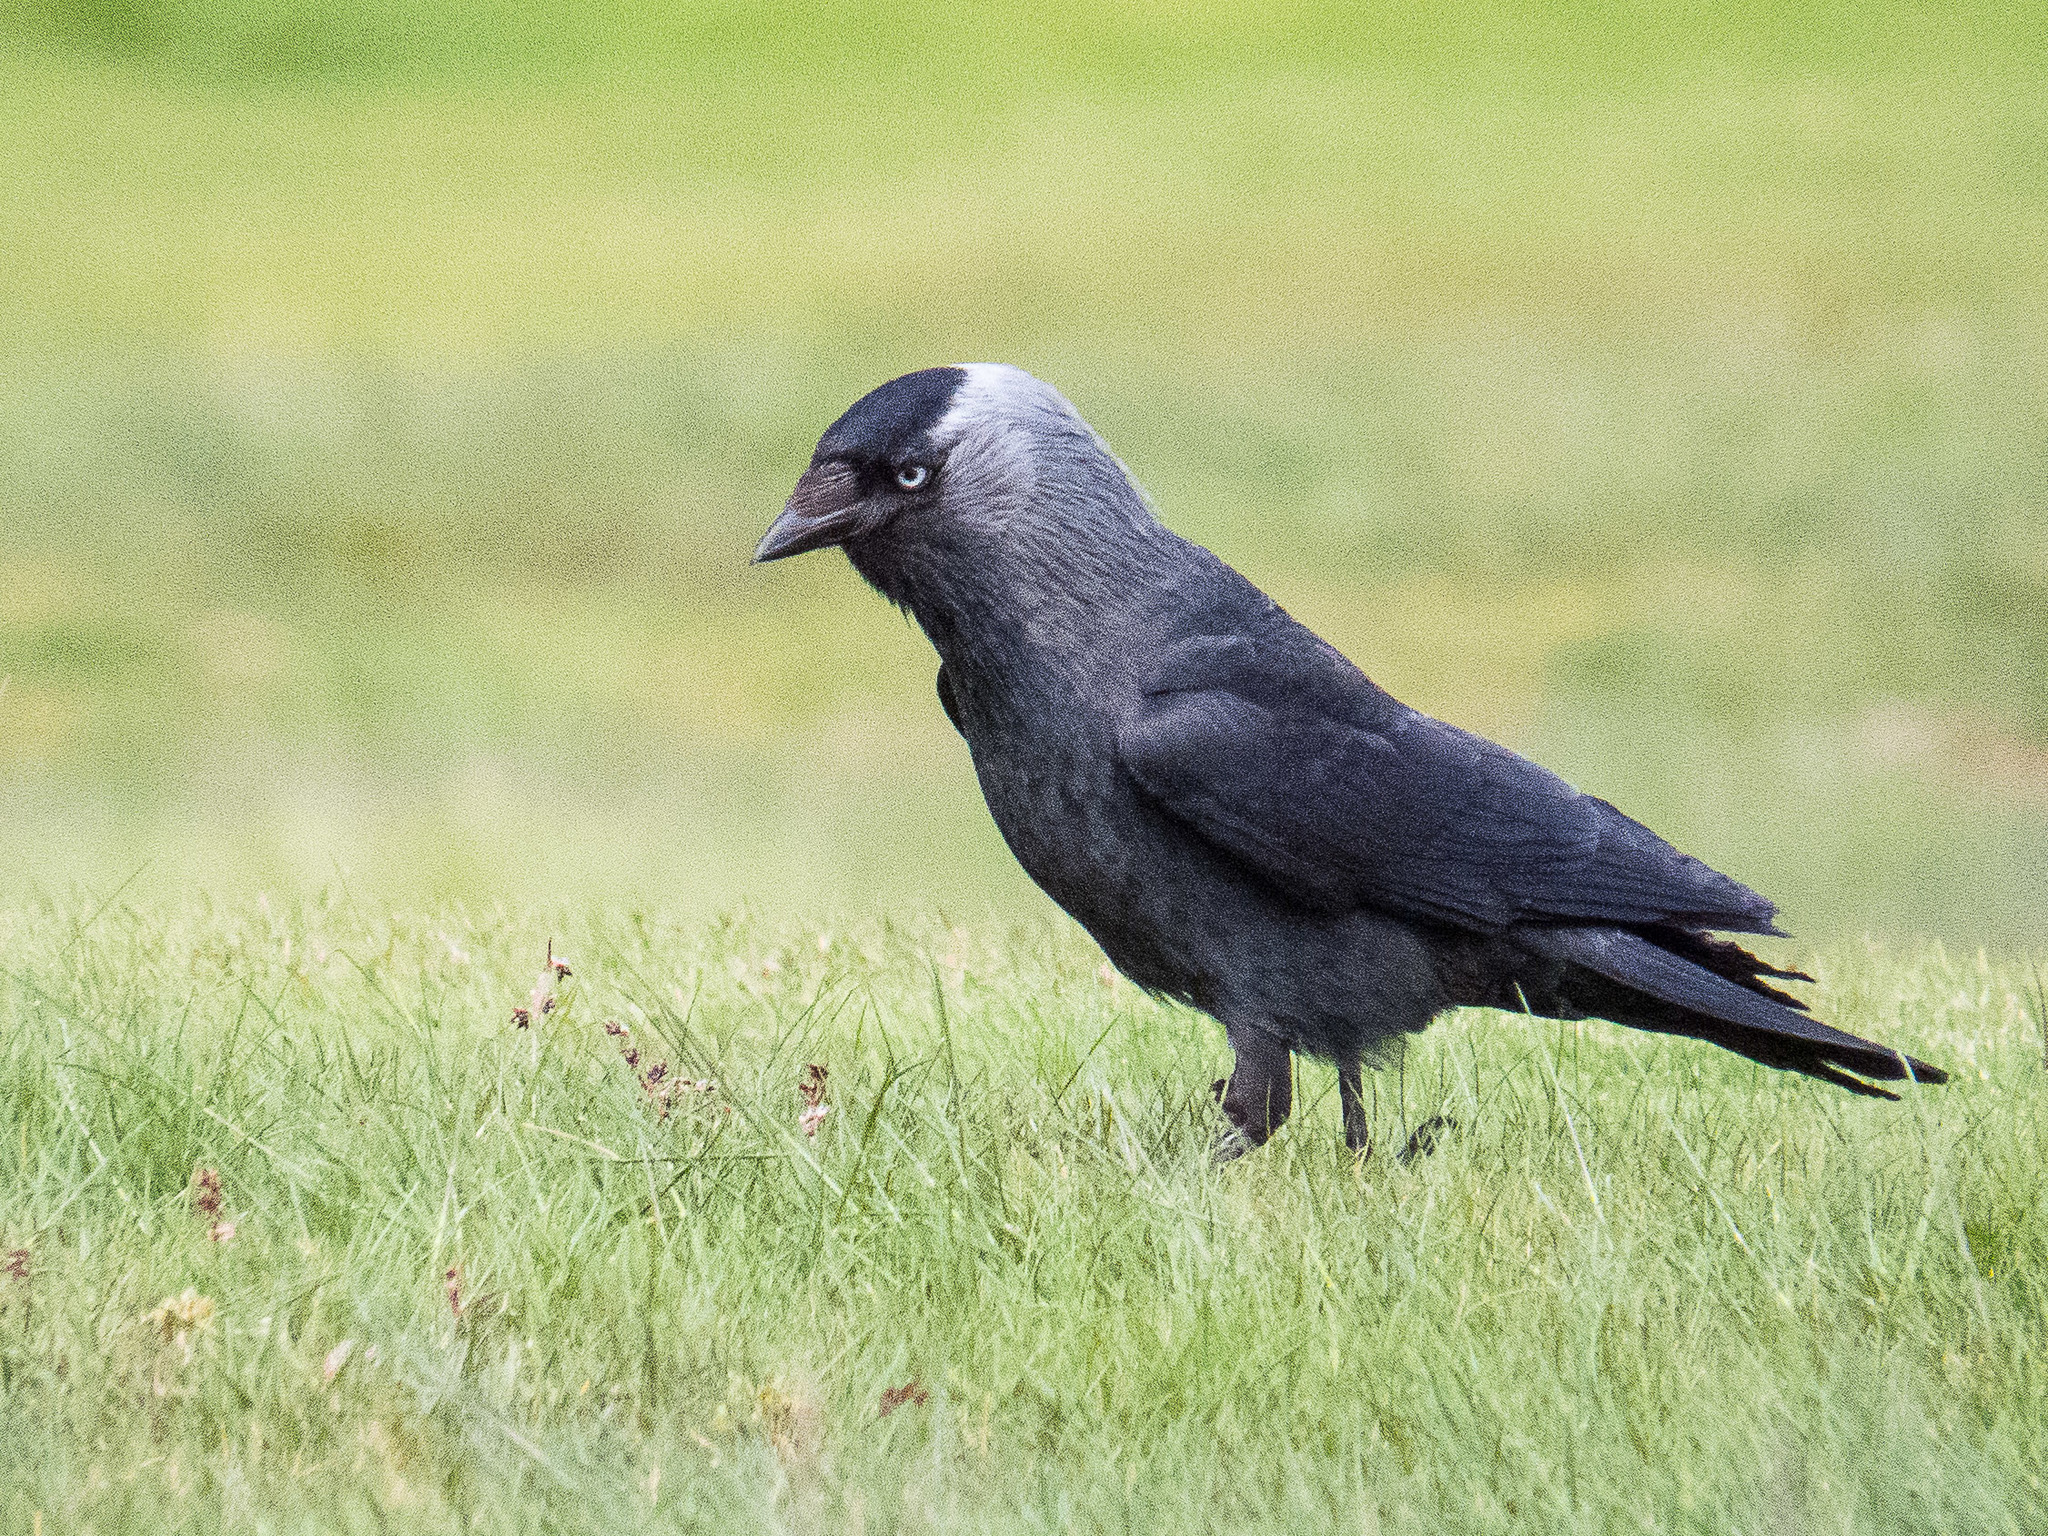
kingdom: Animalia
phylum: Chordata
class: Aves
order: Passeriformes
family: Corvidae
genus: Coloeus
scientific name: Coloeus monedula
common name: Western jackdaw
